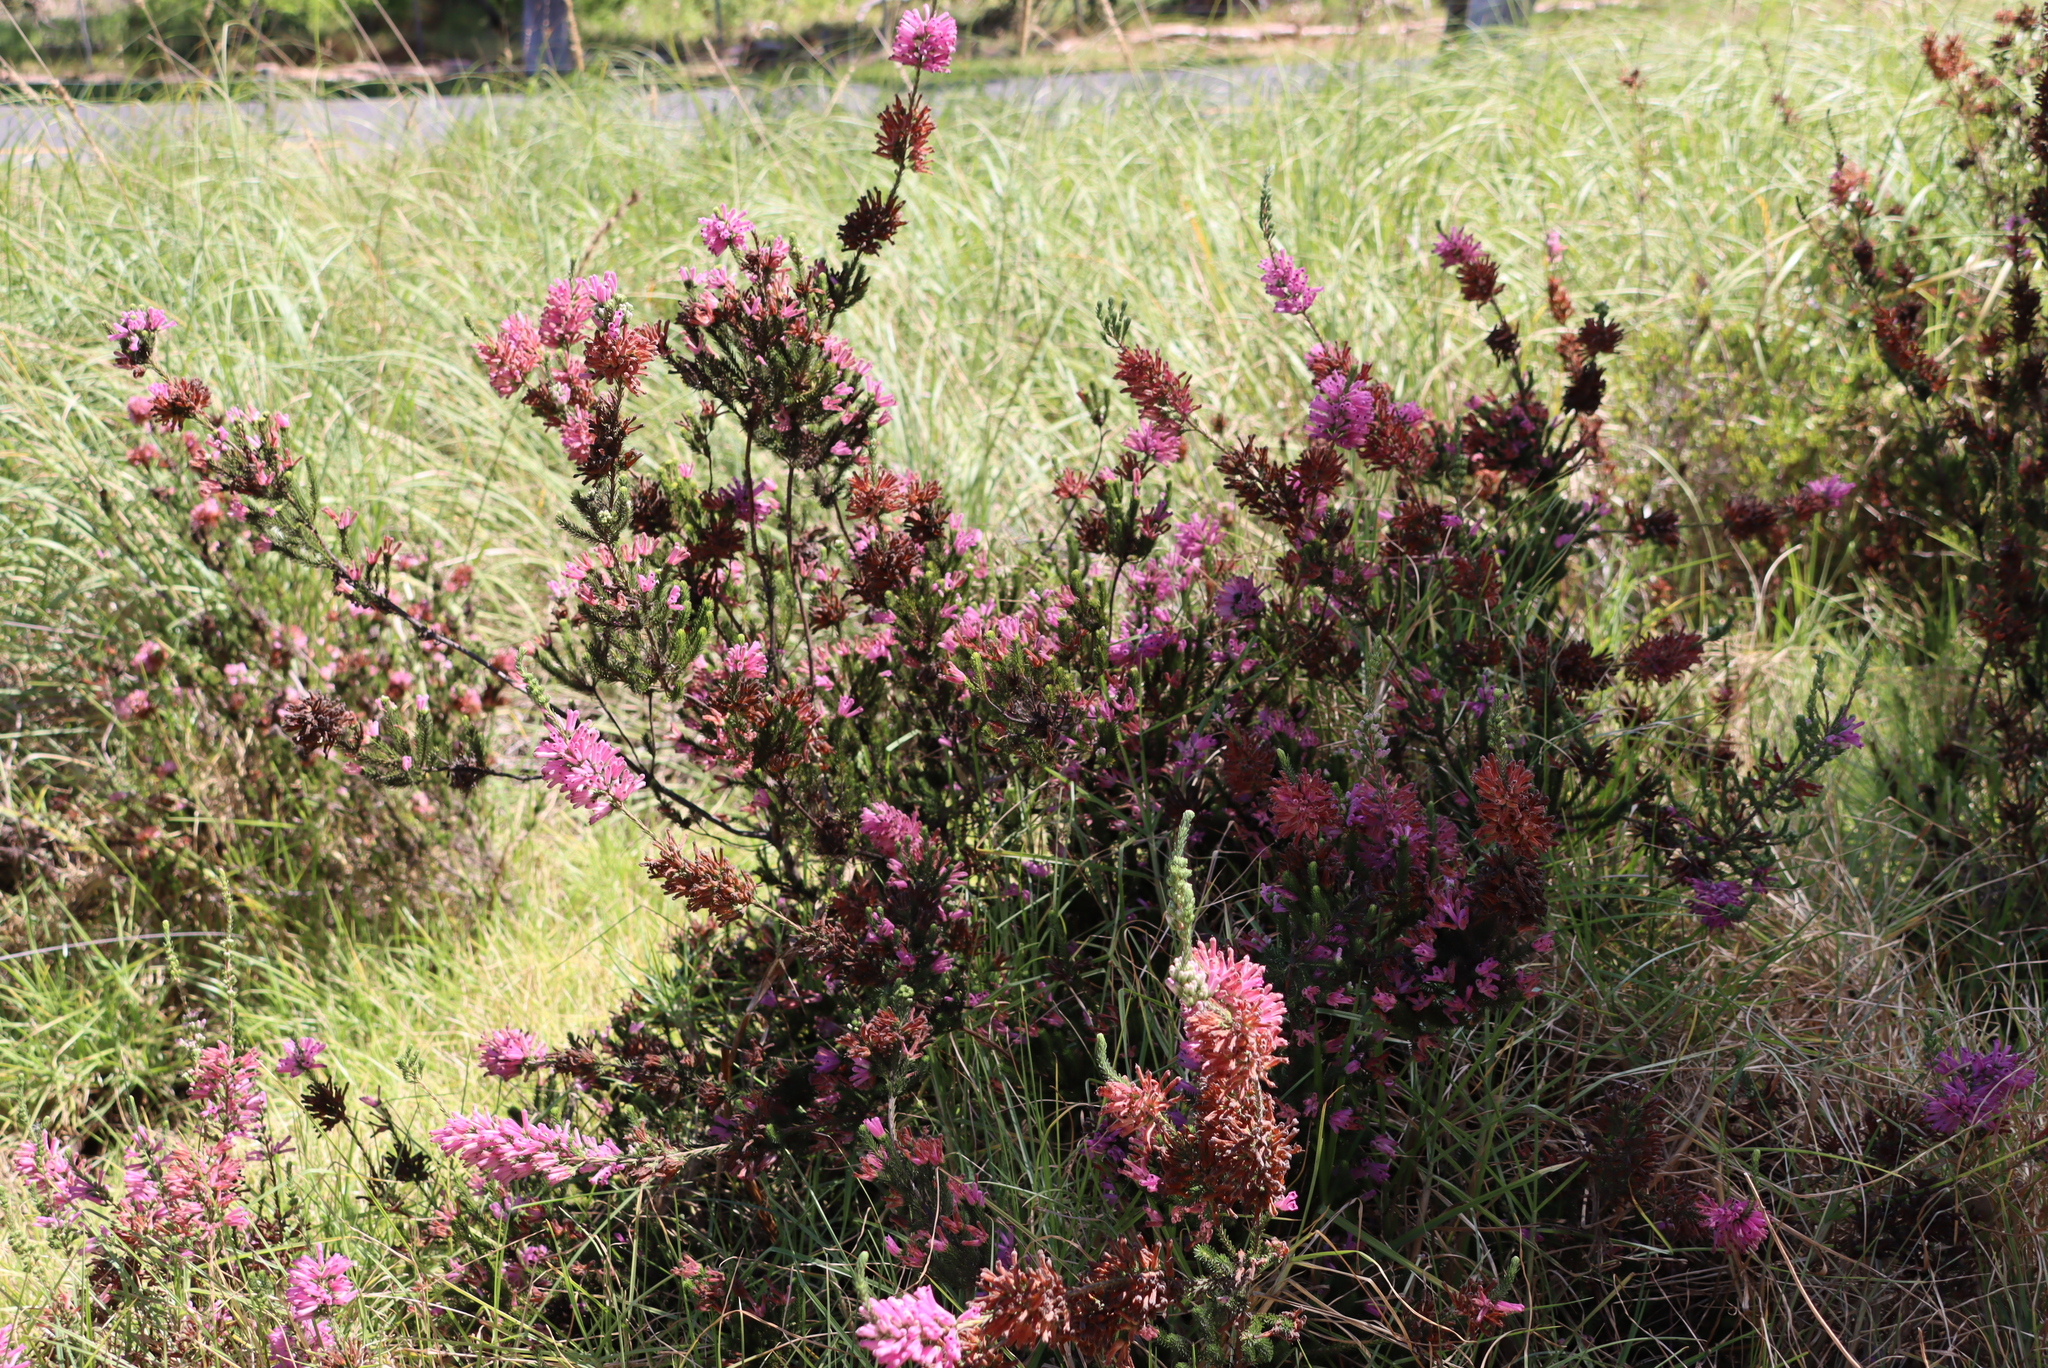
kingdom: Plantae
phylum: Tracheophyta
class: Magnoliopsida
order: Ericales
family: Ericaceae
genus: Erica
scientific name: Erica verticillata
